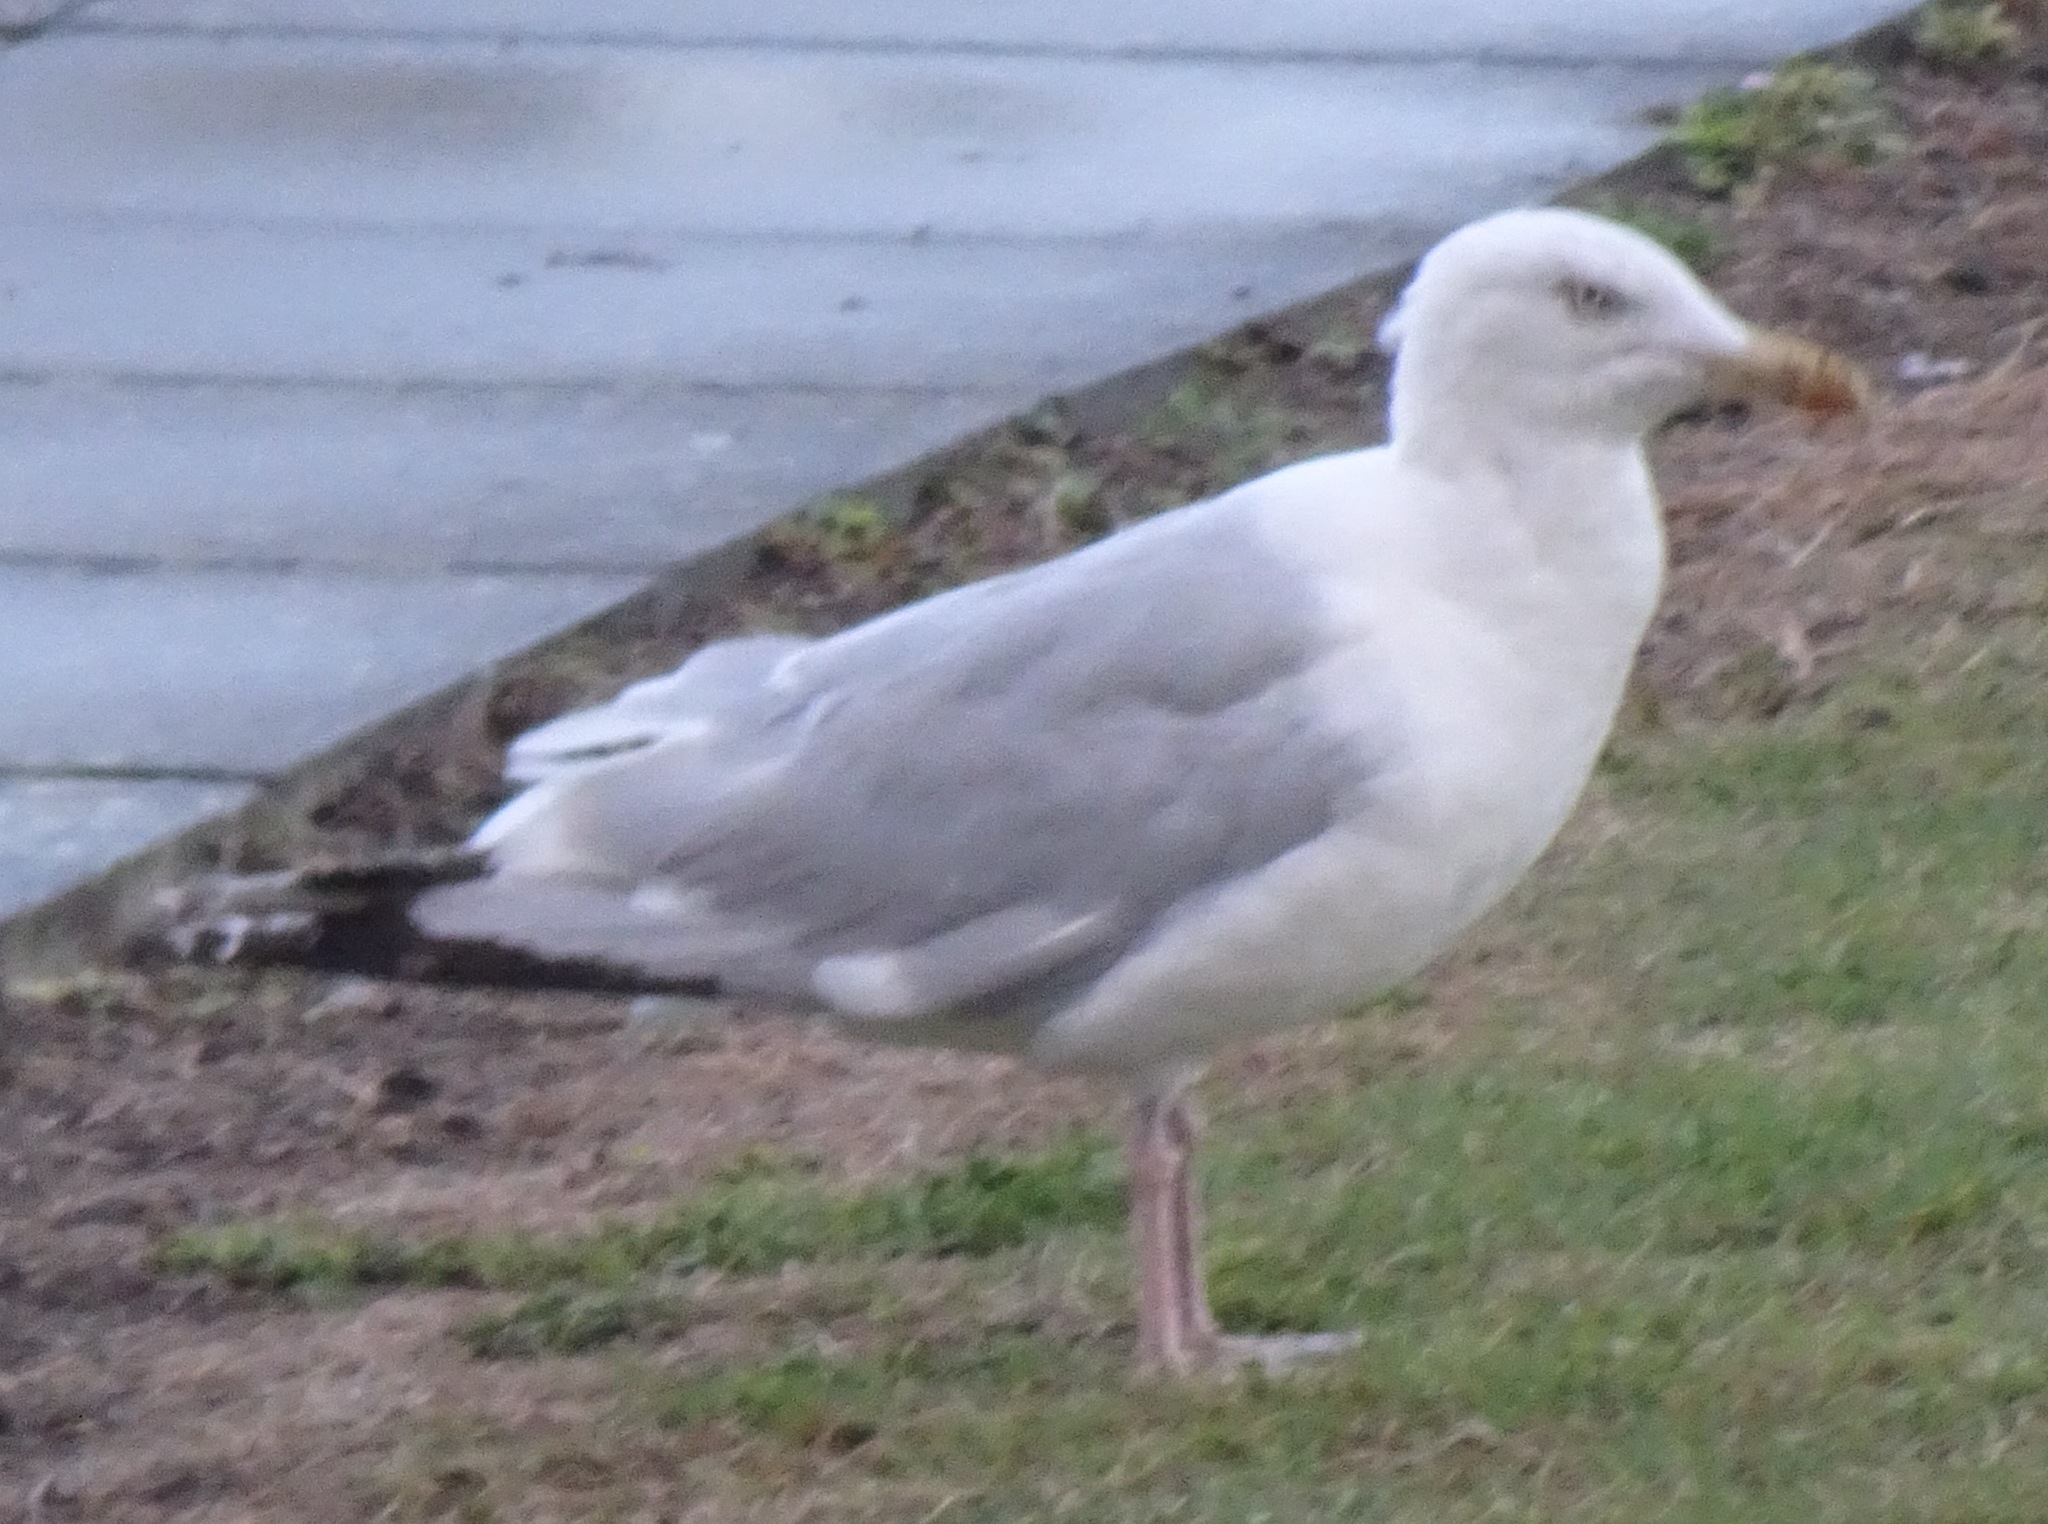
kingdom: Animalia
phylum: Chordata
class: Aves
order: Charadriiformes
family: Laridae
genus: Larus
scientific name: Larus argentatus
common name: Herring gull
